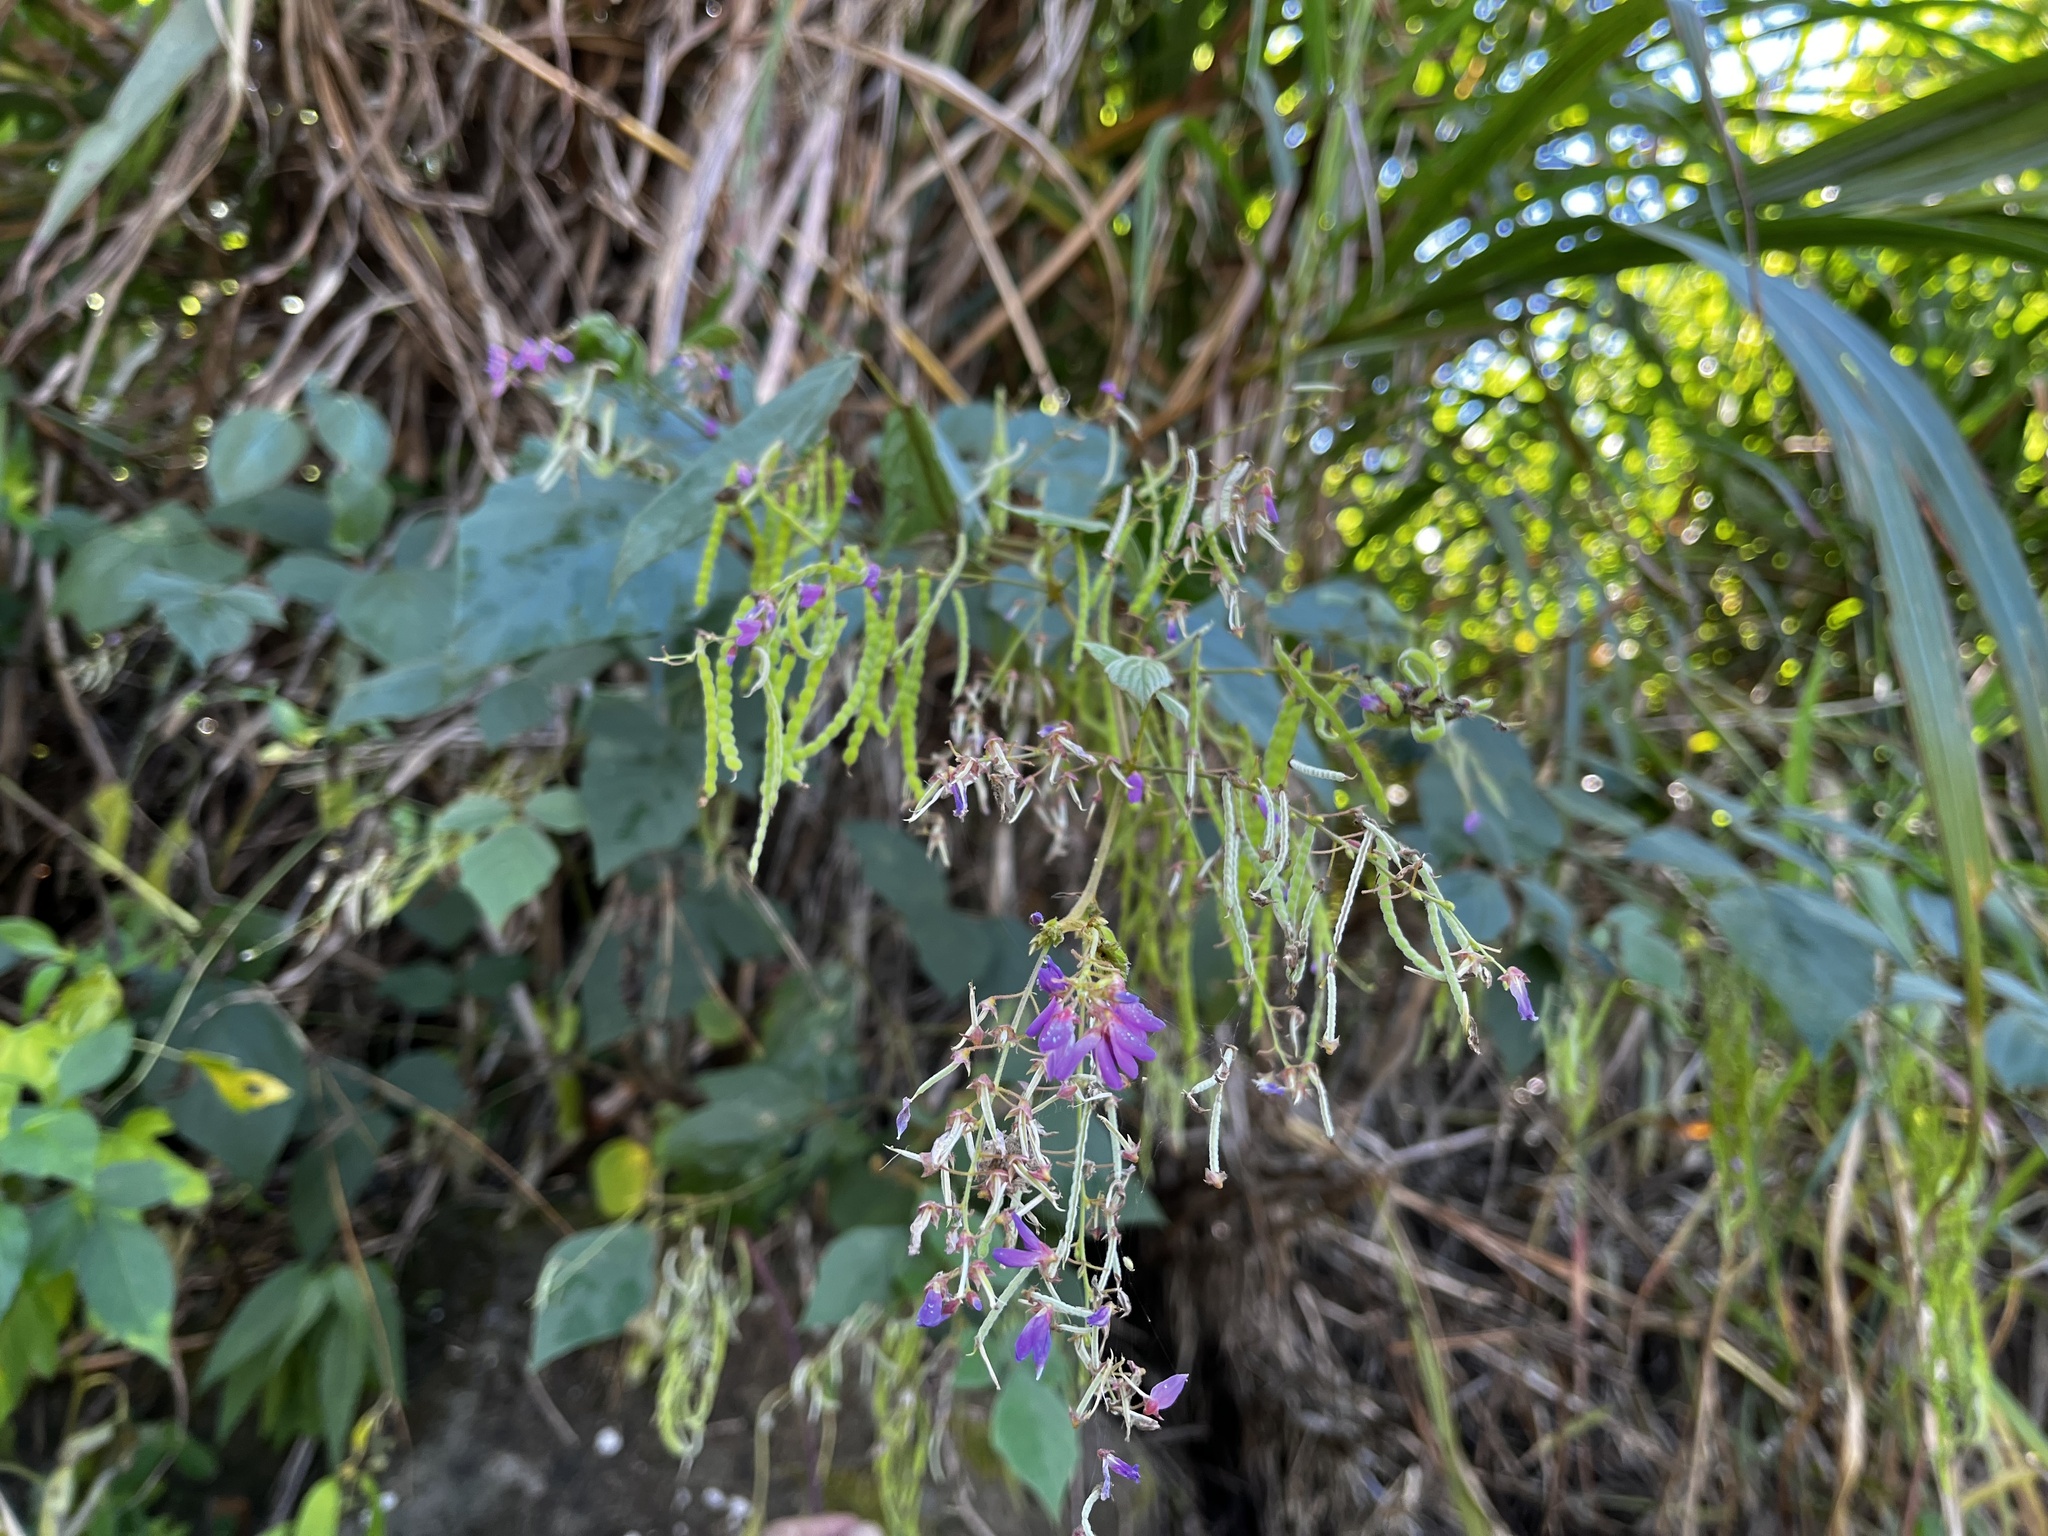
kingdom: Plantae
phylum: Tracheophyta
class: Magnoliopsida
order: Fabales
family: Fabaceae
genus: Puhuaea
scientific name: Puhuaea sequax
